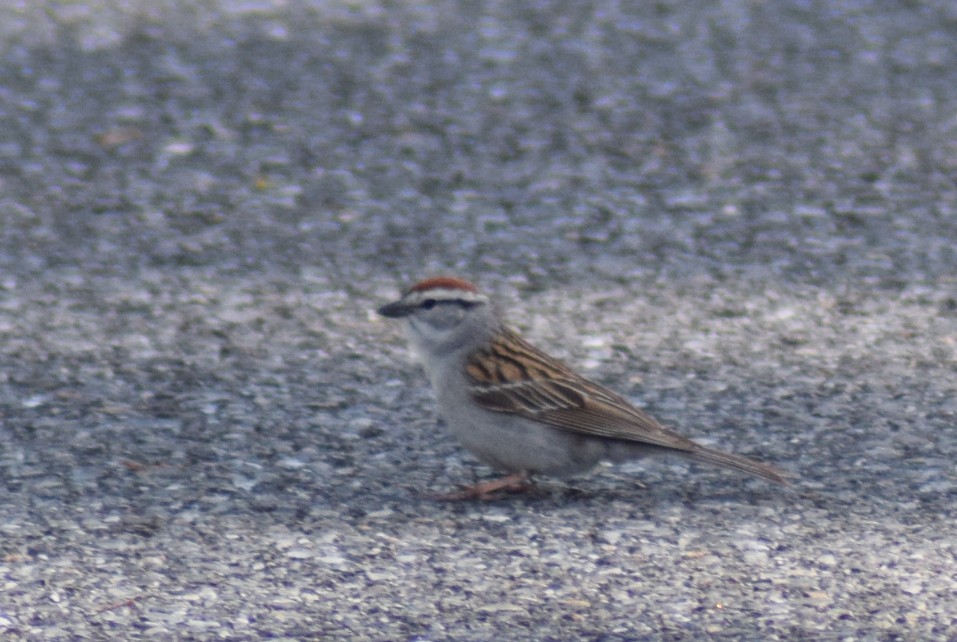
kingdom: Animalia
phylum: Chordata
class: Aves
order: Passeriformes
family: Passerellidae
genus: Spizella
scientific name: Spizella passerina
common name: Chipping sparrow
